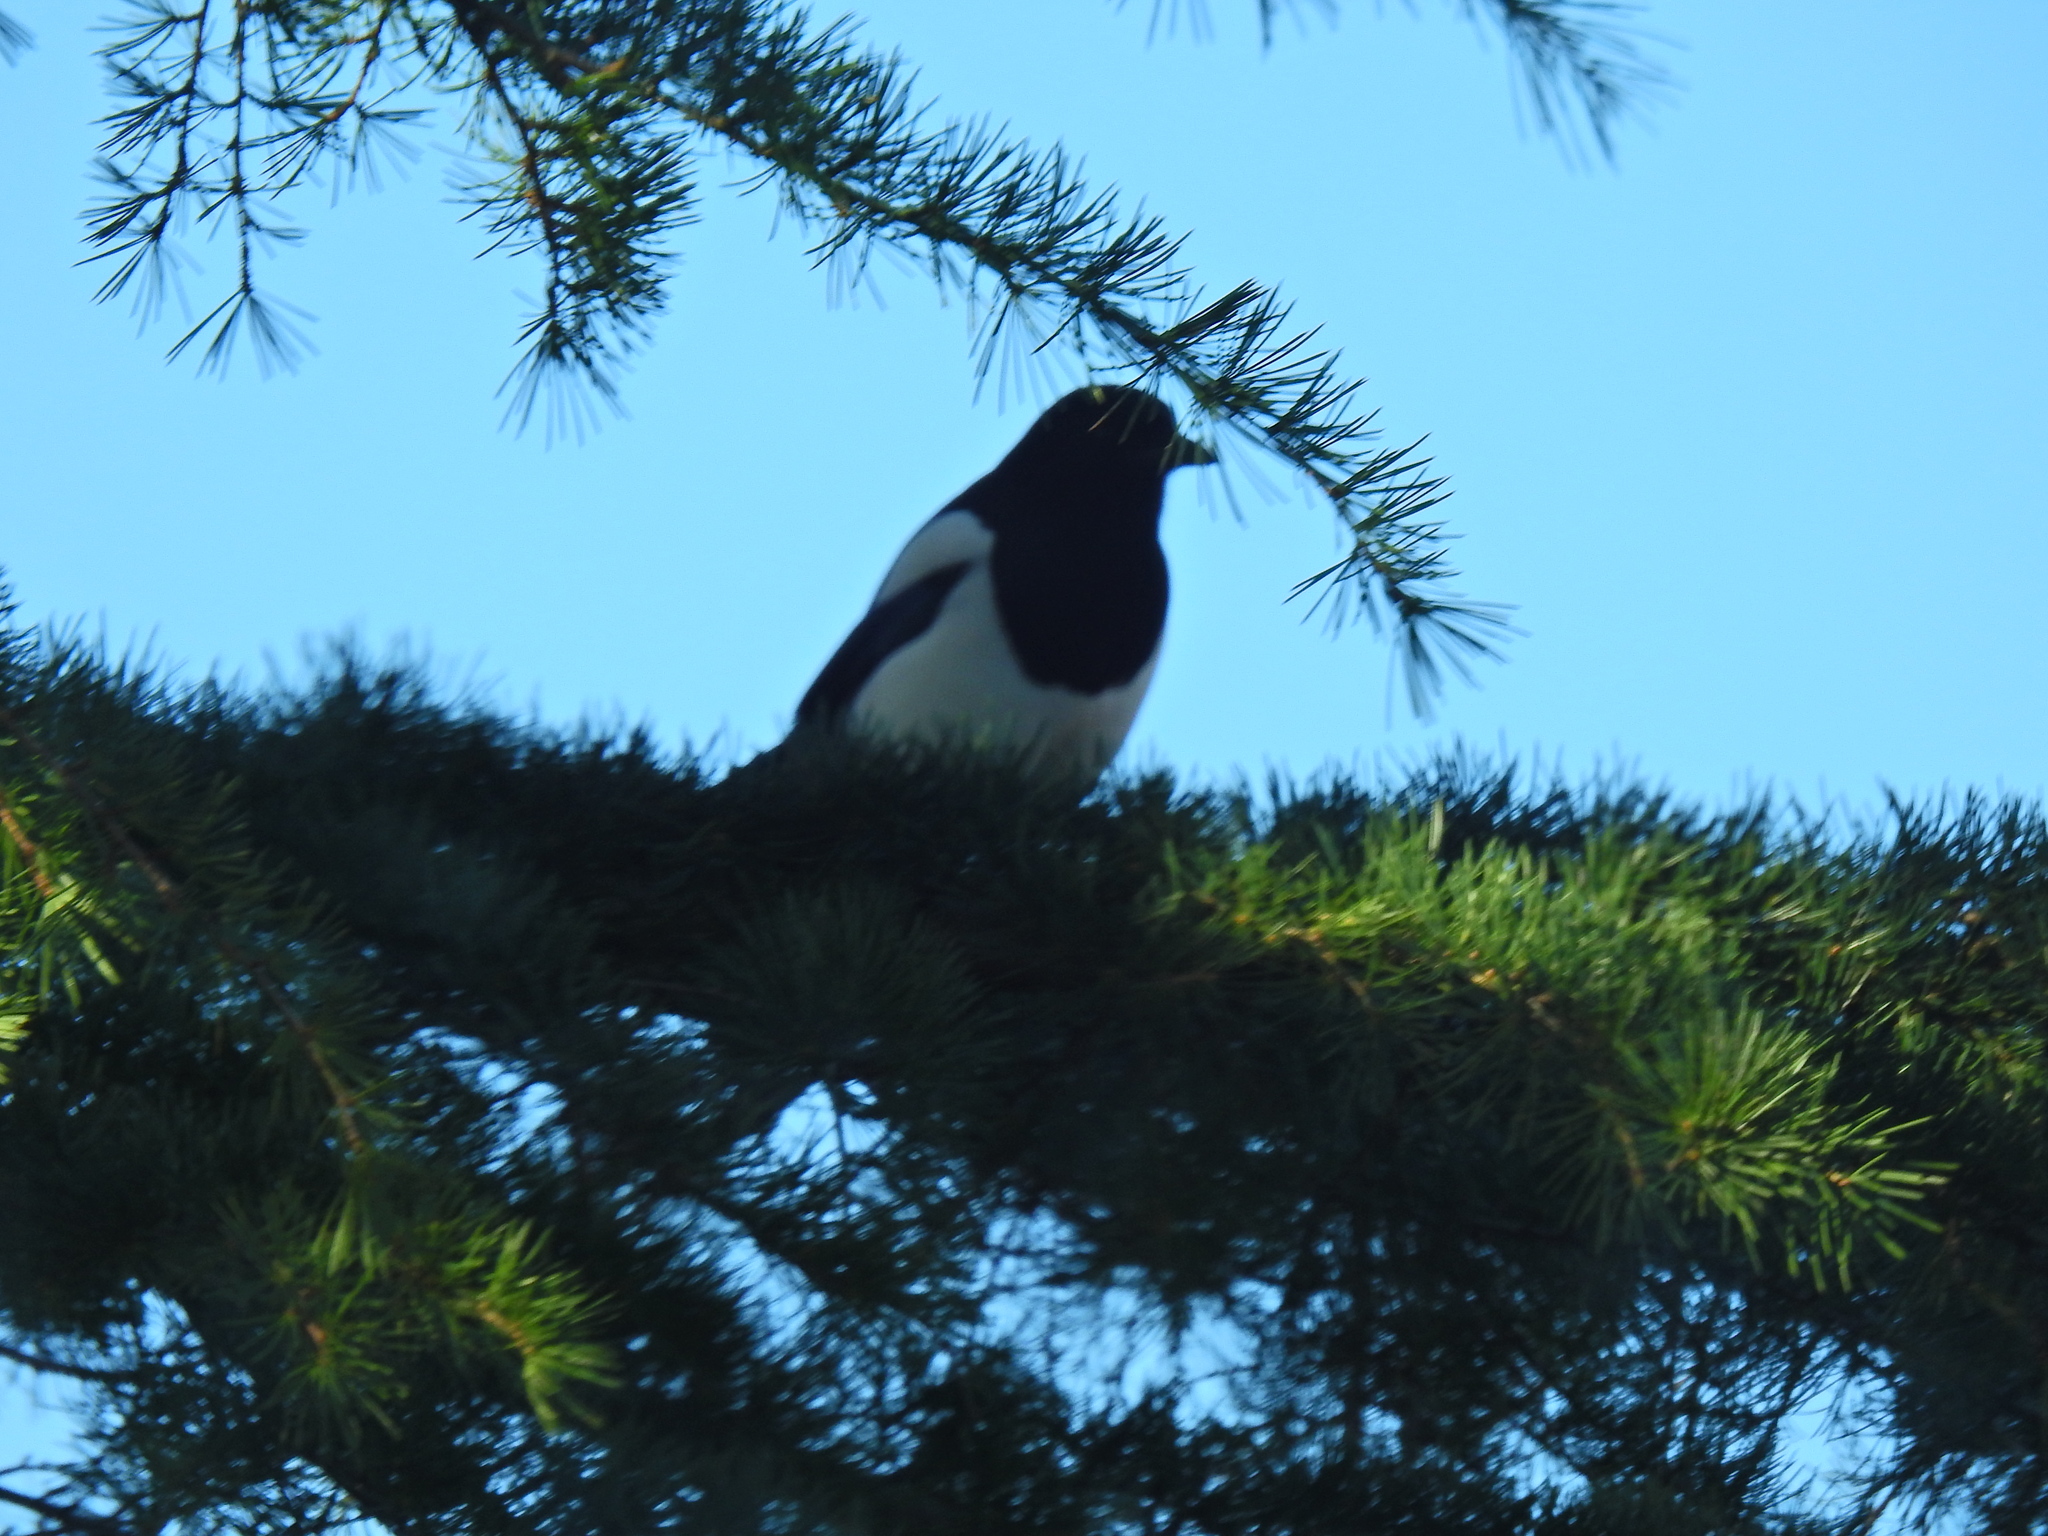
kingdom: Animalia
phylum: Chordata
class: Aves
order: Passeriformes
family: Corvidae
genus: Pica
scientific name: Pica pica
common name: Eurasian magpie
